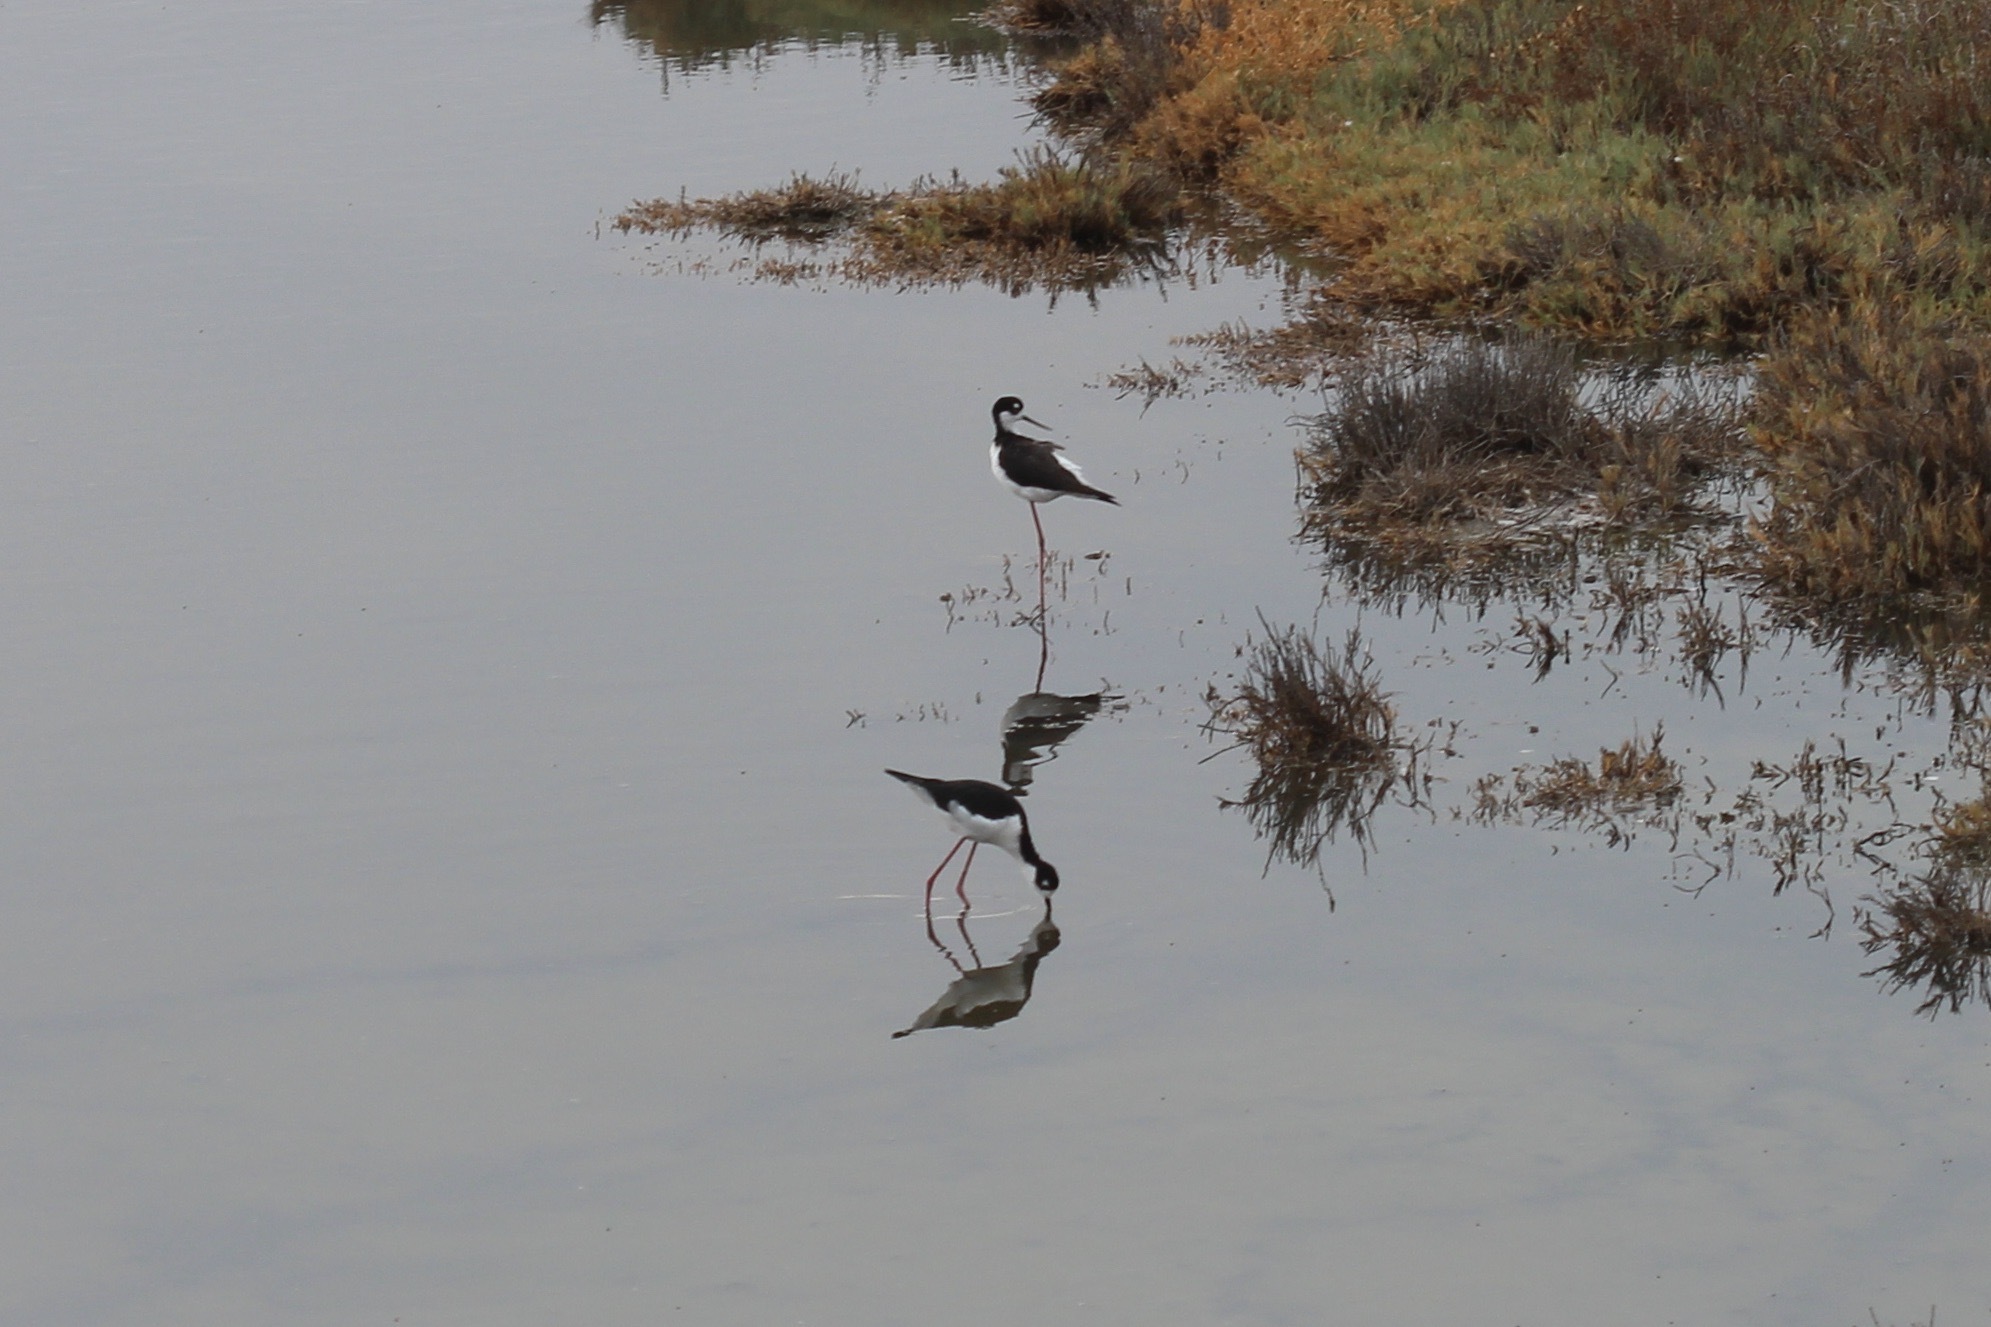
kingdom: Animalia
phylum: Chordata
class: Aves
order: Charadriiformes
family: Recurvirostridae
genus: Himantopus
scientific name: Himantopus mexicanus
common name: Black-necked stilt
